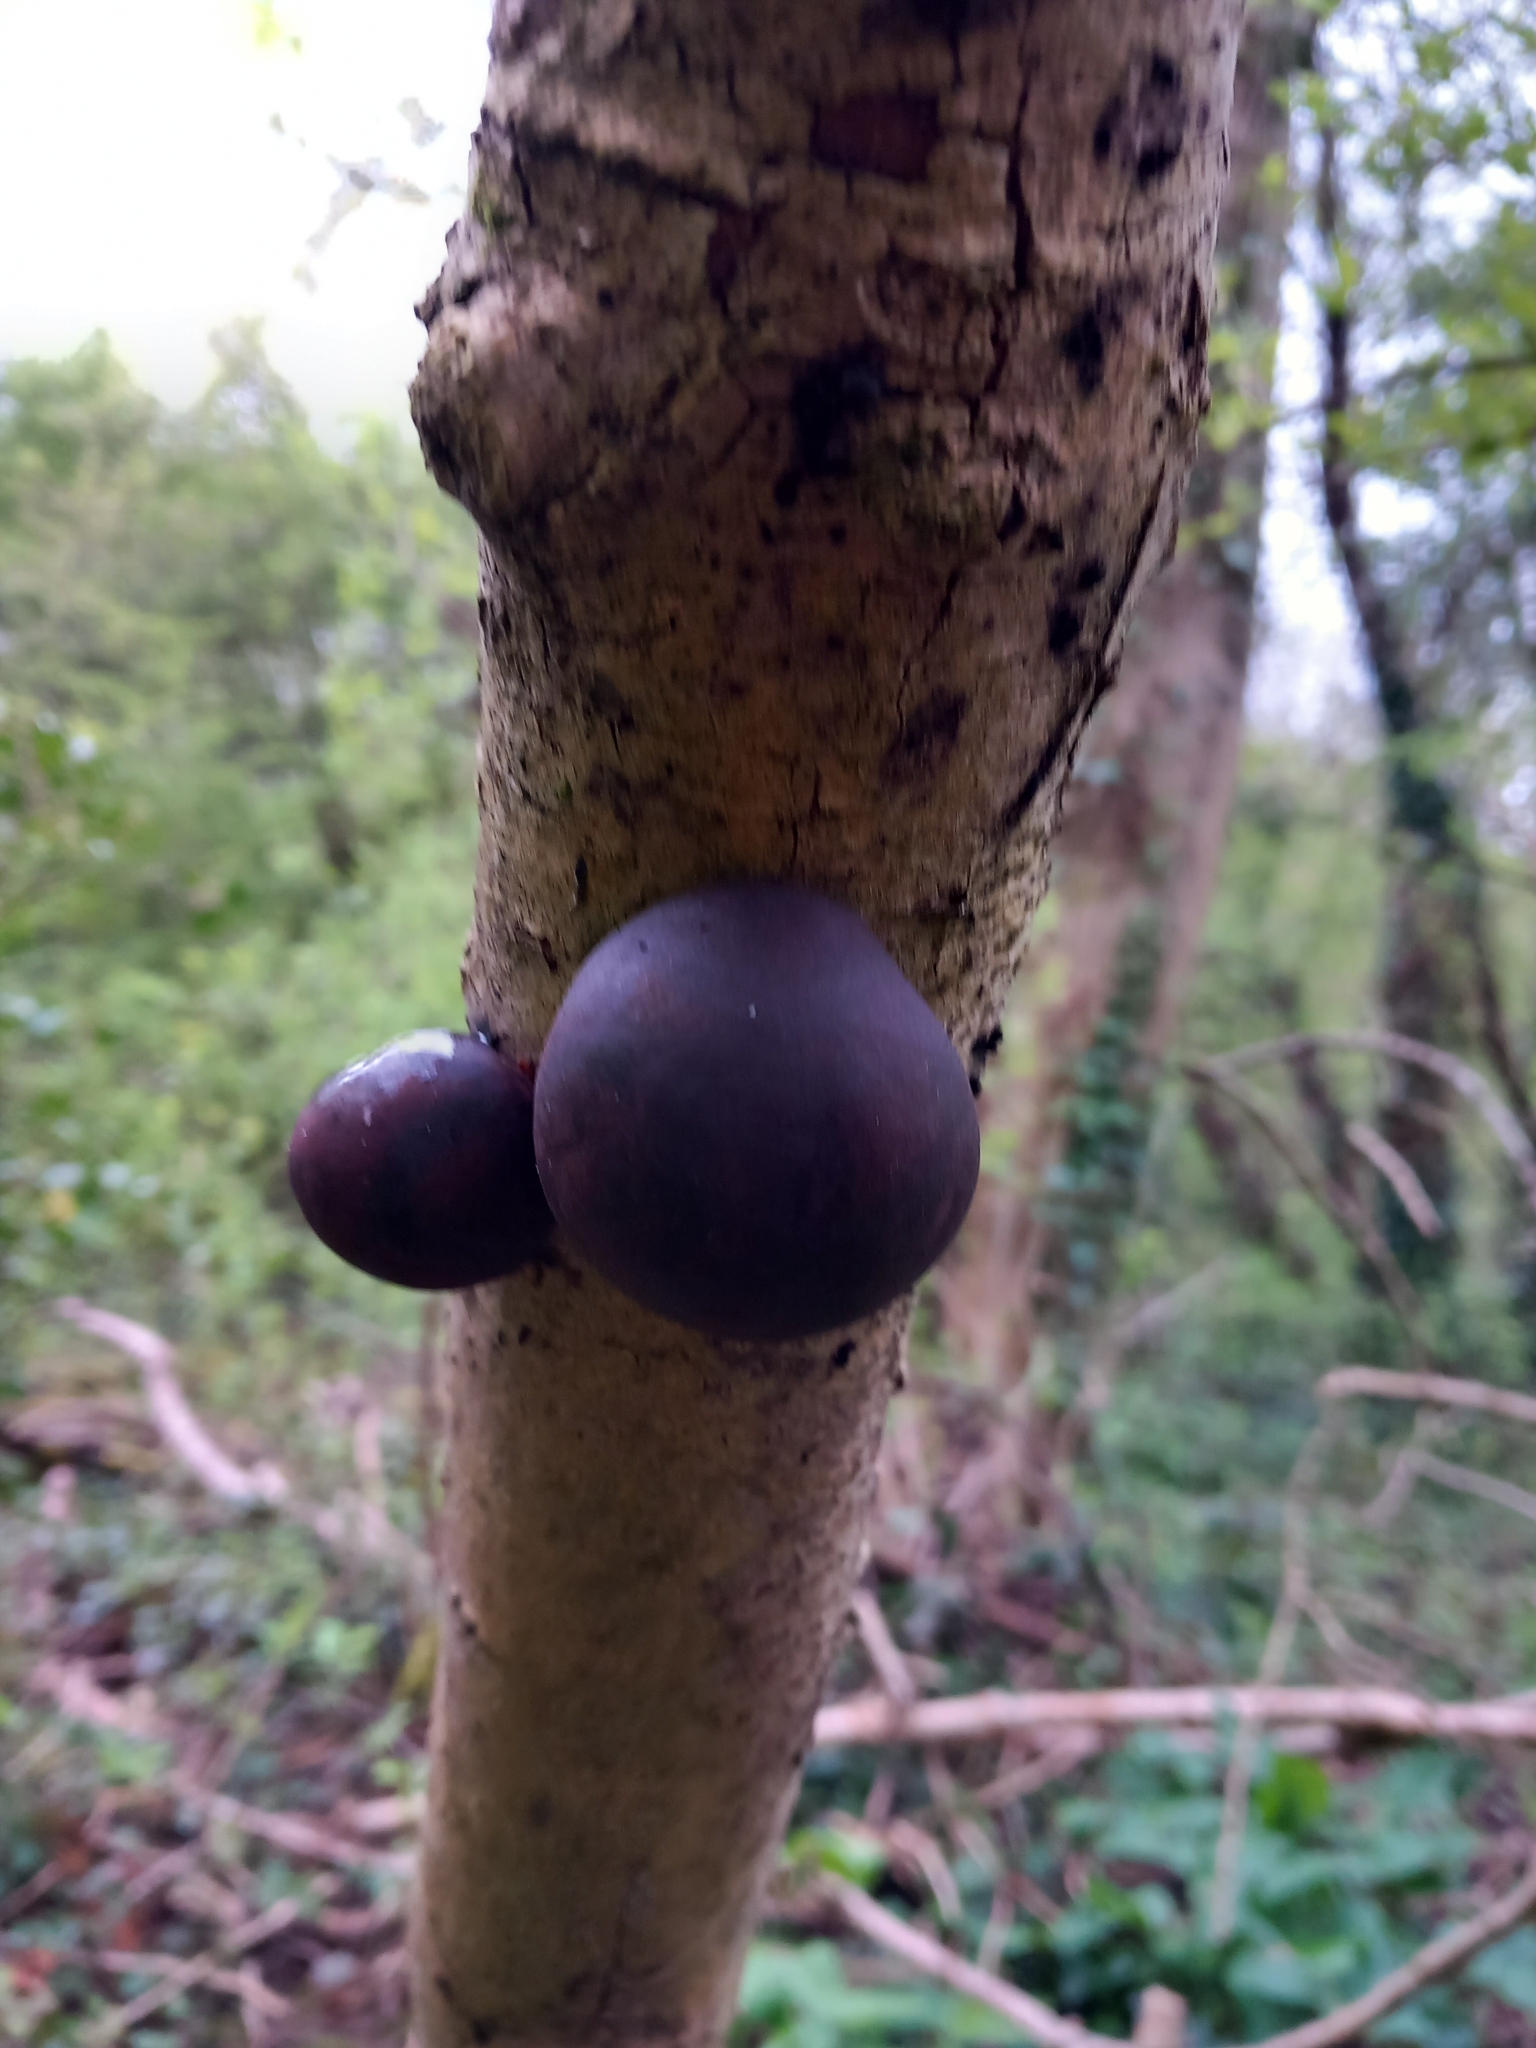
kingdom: Fungi
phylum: Ascomycota
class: Sordariomycetes
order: Xylariales
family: Hypoxylaceae
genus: Daldinia
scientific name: Daldinia concentrica
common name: Cramp balls
